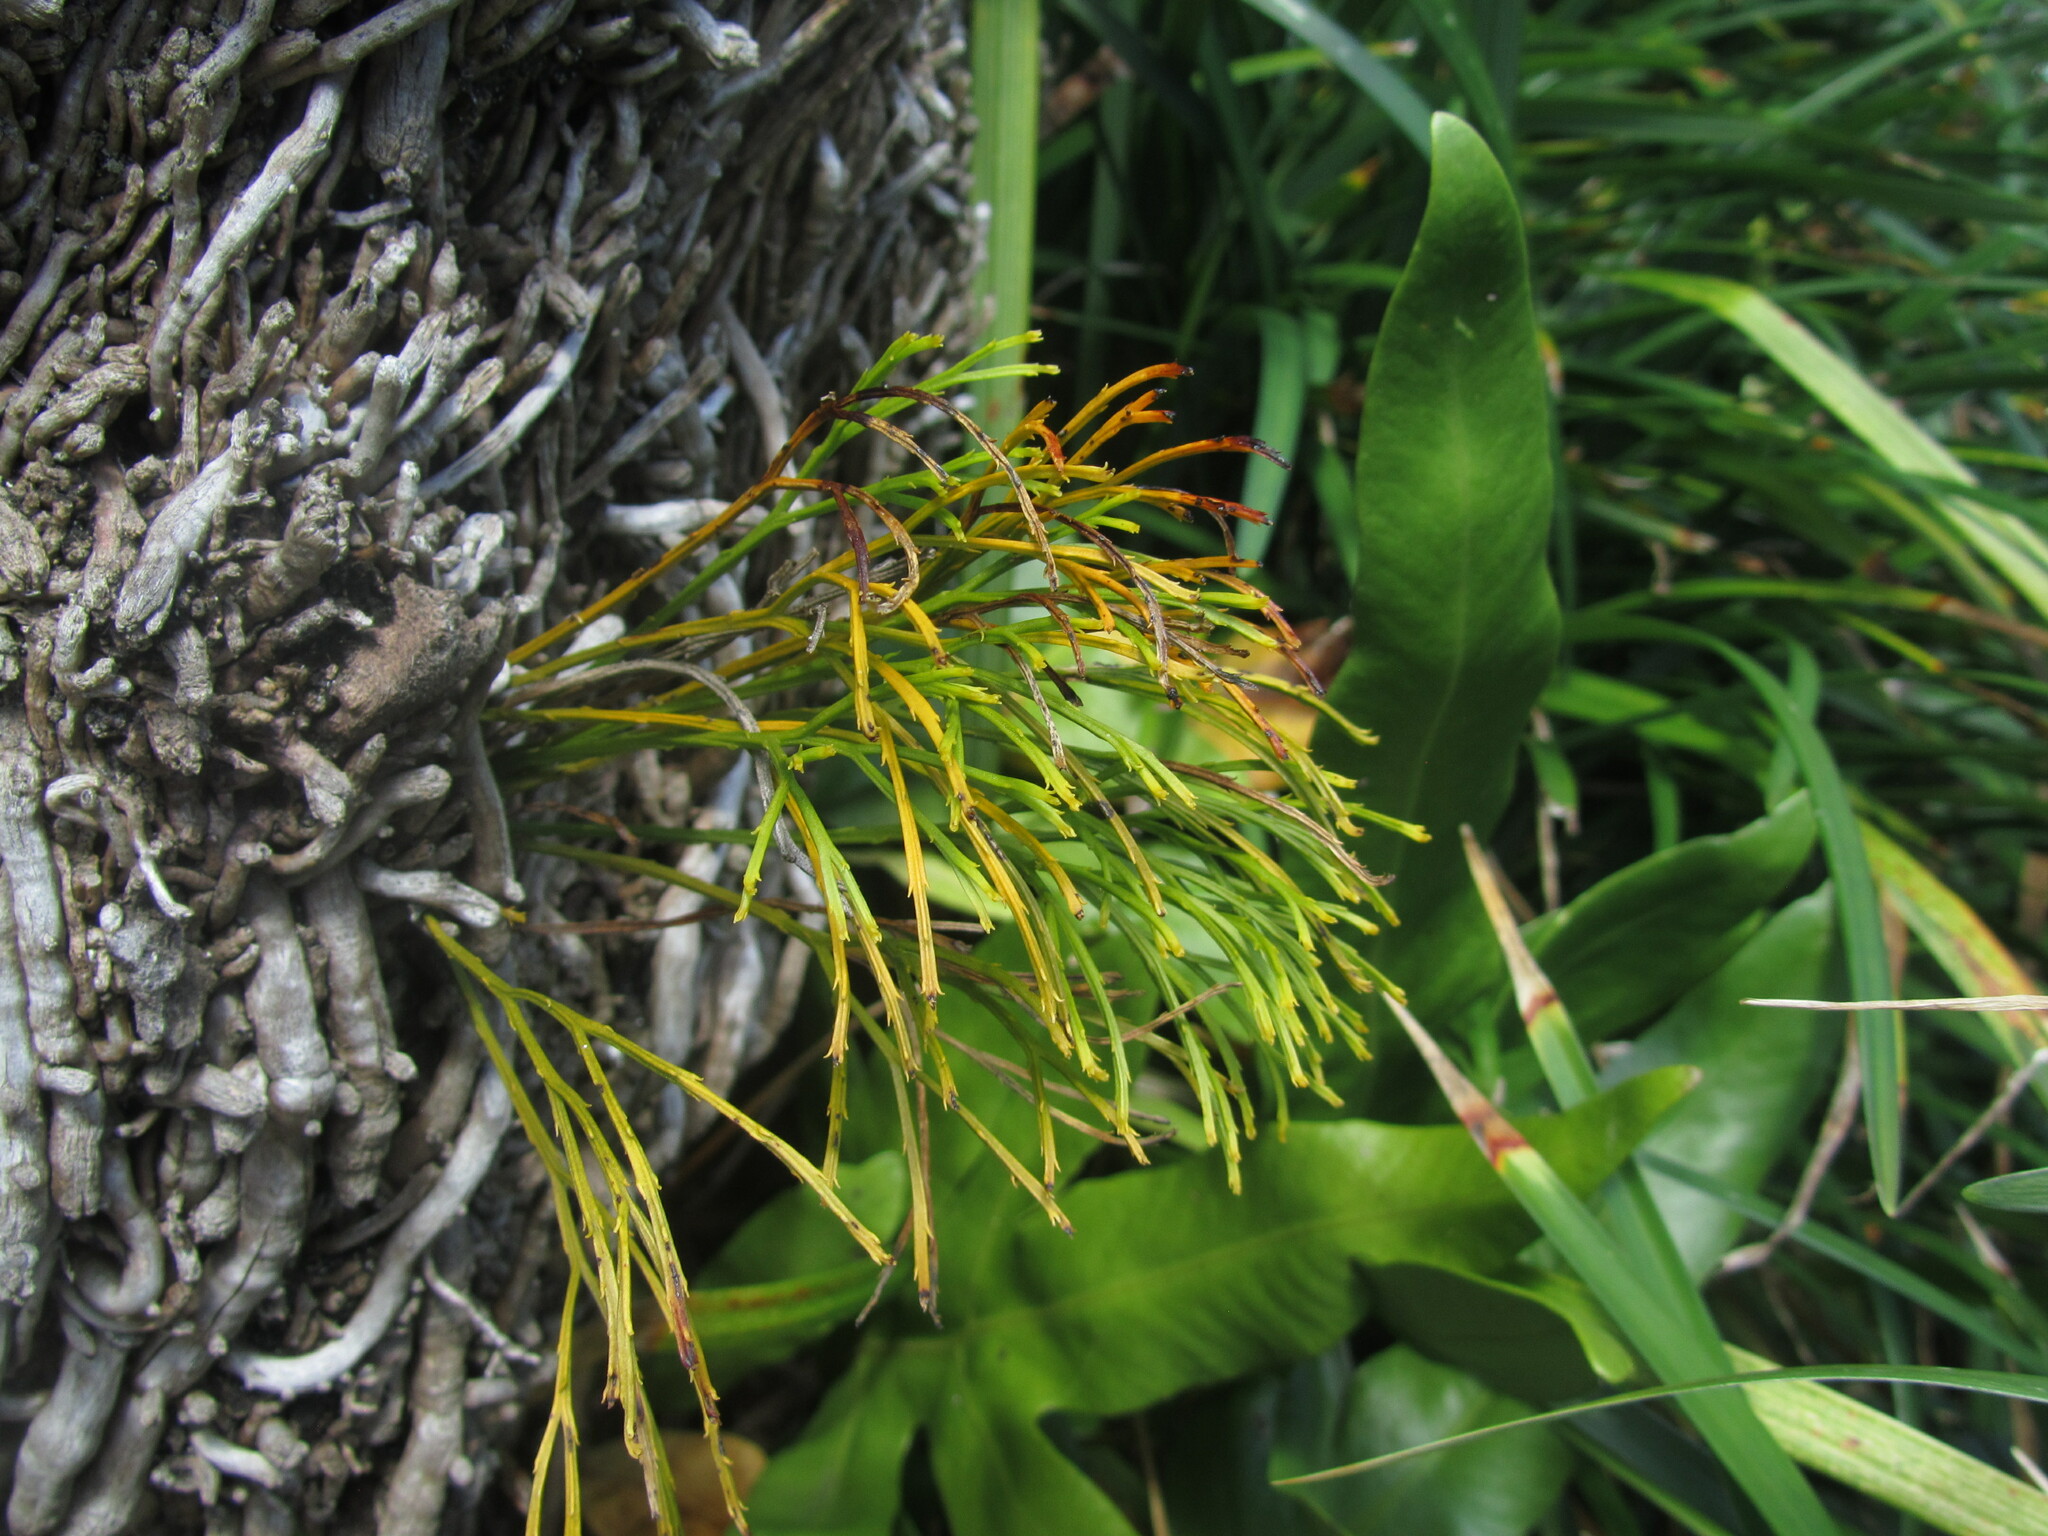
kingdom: Plantae
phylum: Tracheophyta
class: Polypodiopsida
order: Psilotales
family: Psilotaceae
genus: Psilotum
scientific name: Psilotum nudum
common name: Skeleton fork fern
